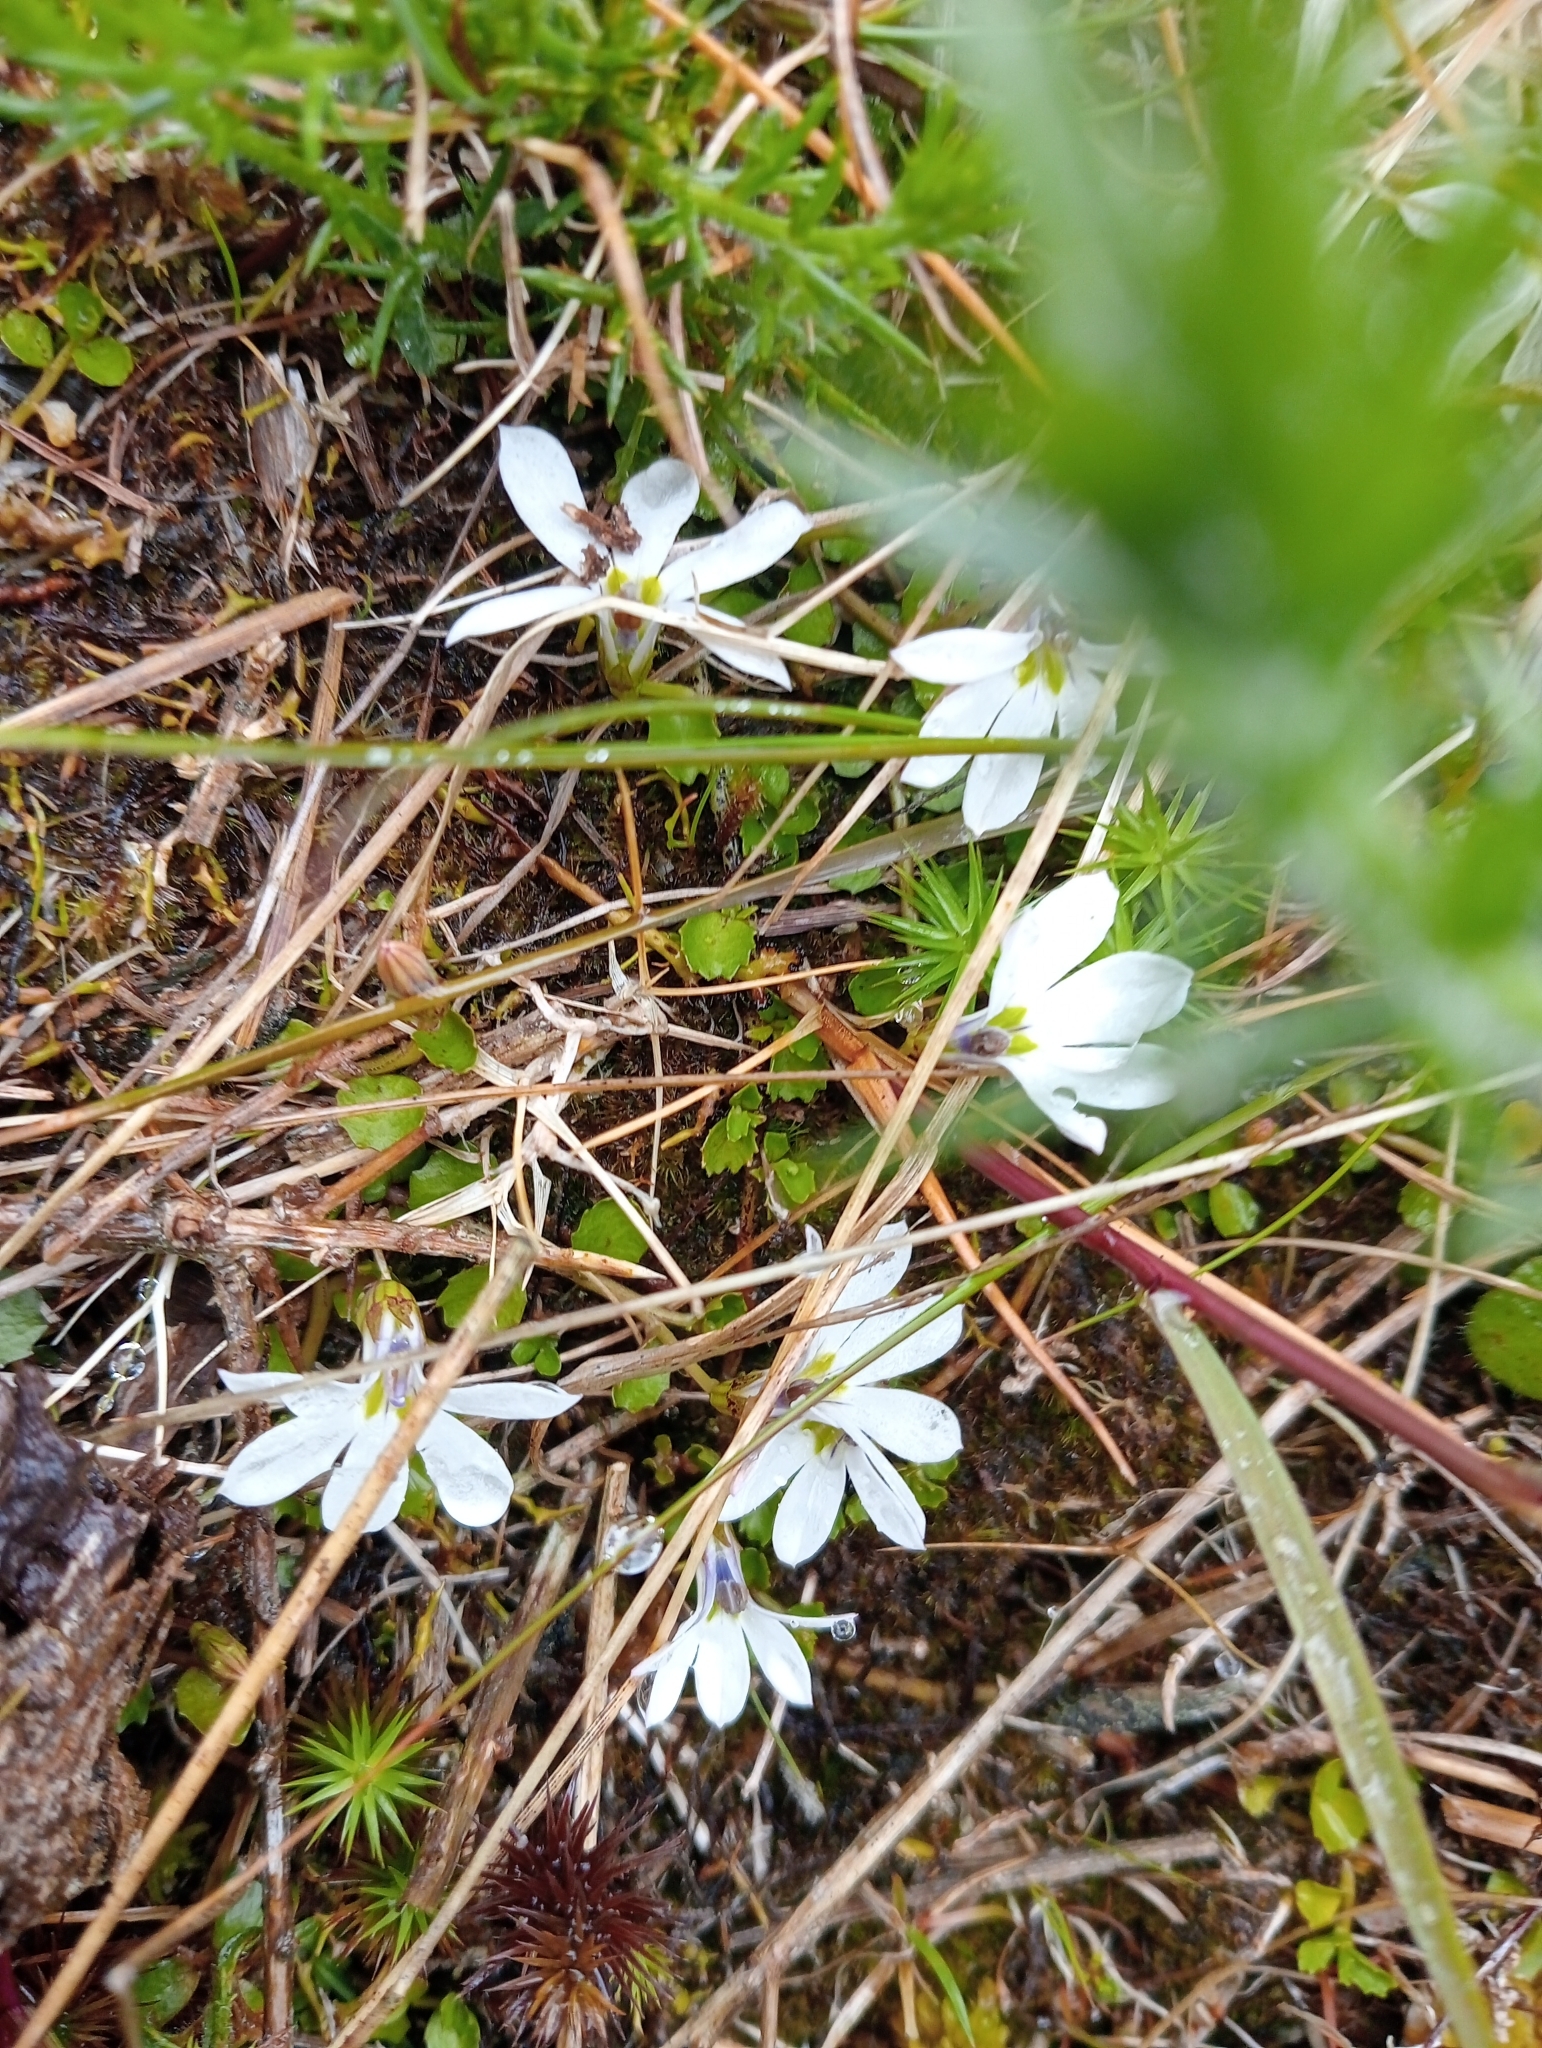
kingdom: Plantae
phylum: Tracheophyta
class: Magnoliopsida
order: Asterales
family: Campanulaceae
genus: Lobelia
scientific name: Lobelia angulata
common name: Lawn lobelia
